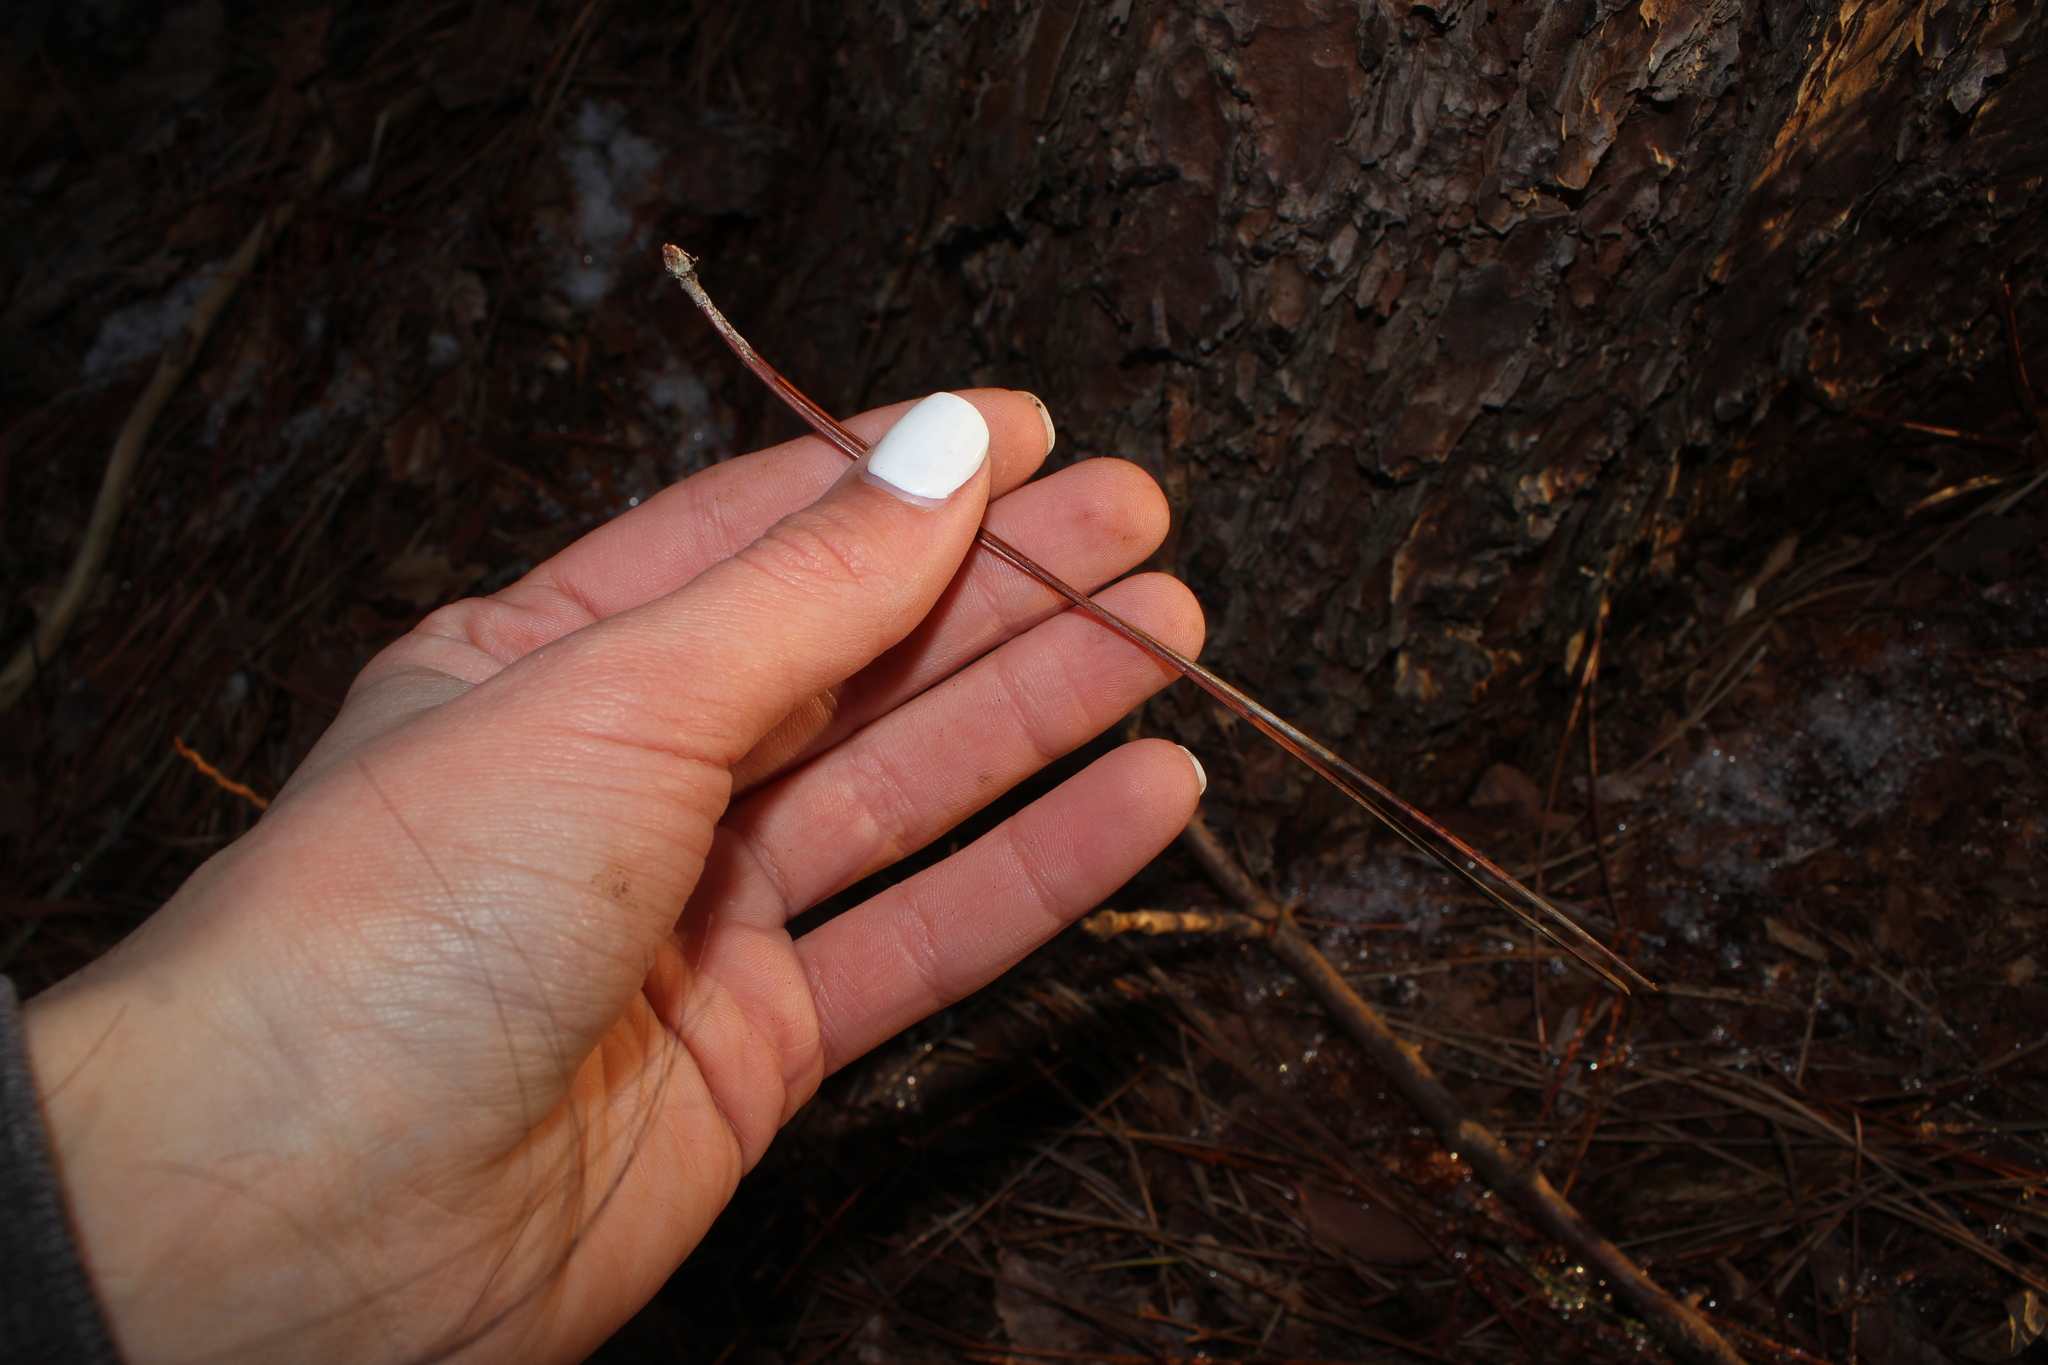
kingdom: Plantae
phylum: Tracheophyta
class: Pinopsida
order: Pinales
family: Pinaceae
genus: Pinus
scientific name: Pinus resinosa
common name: Norway pine
